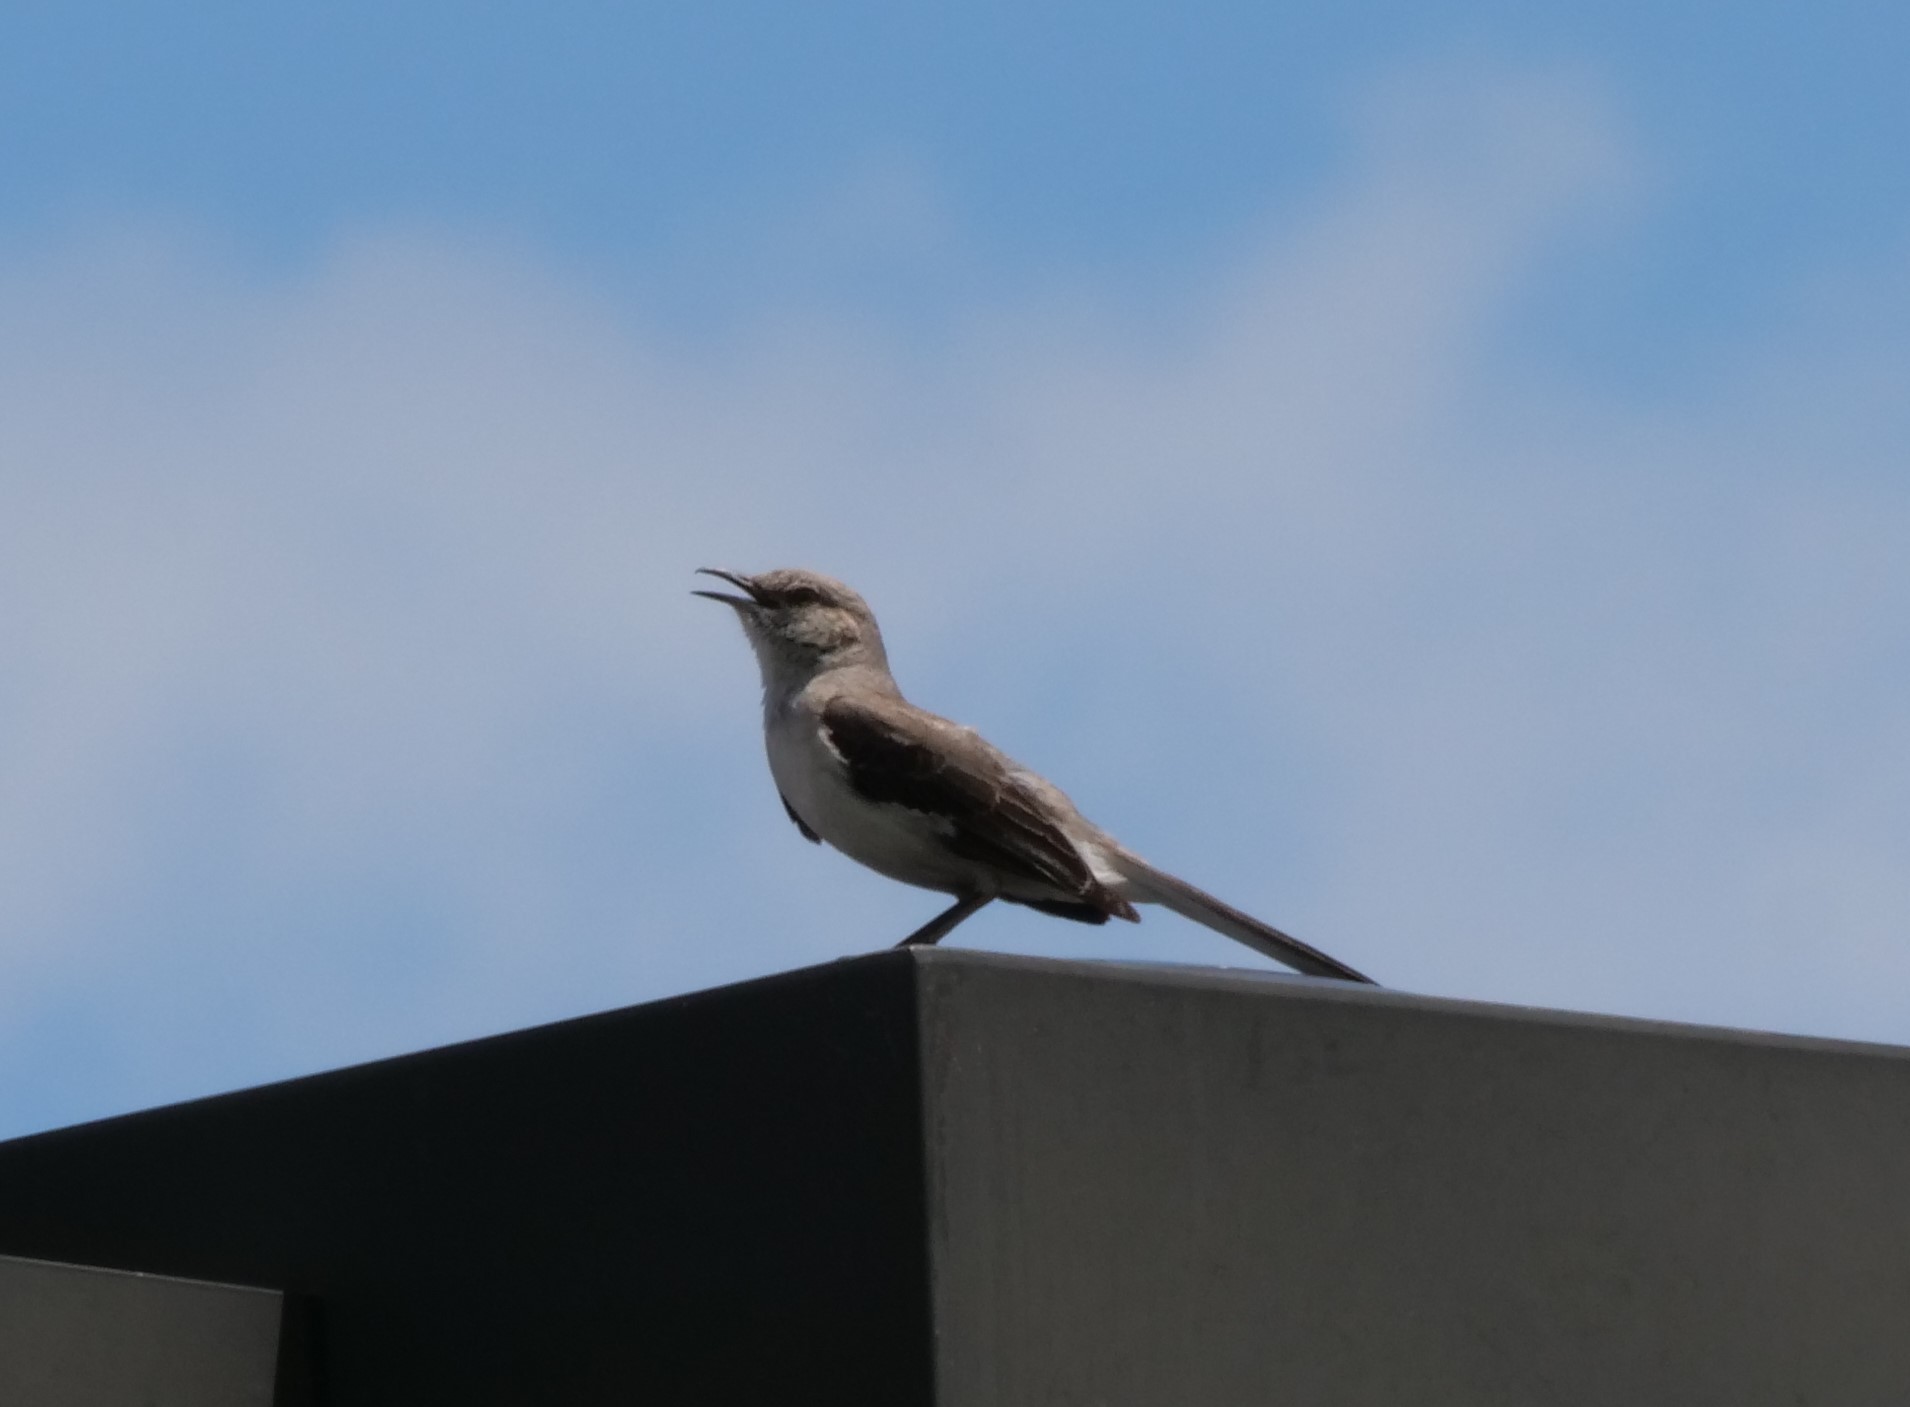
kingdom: Animalia
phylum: Chordata
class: Aves
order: Passeriformes
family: Mimidae
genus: Mimus
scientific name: Mimus polyglottos
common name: Northern mockingbird
